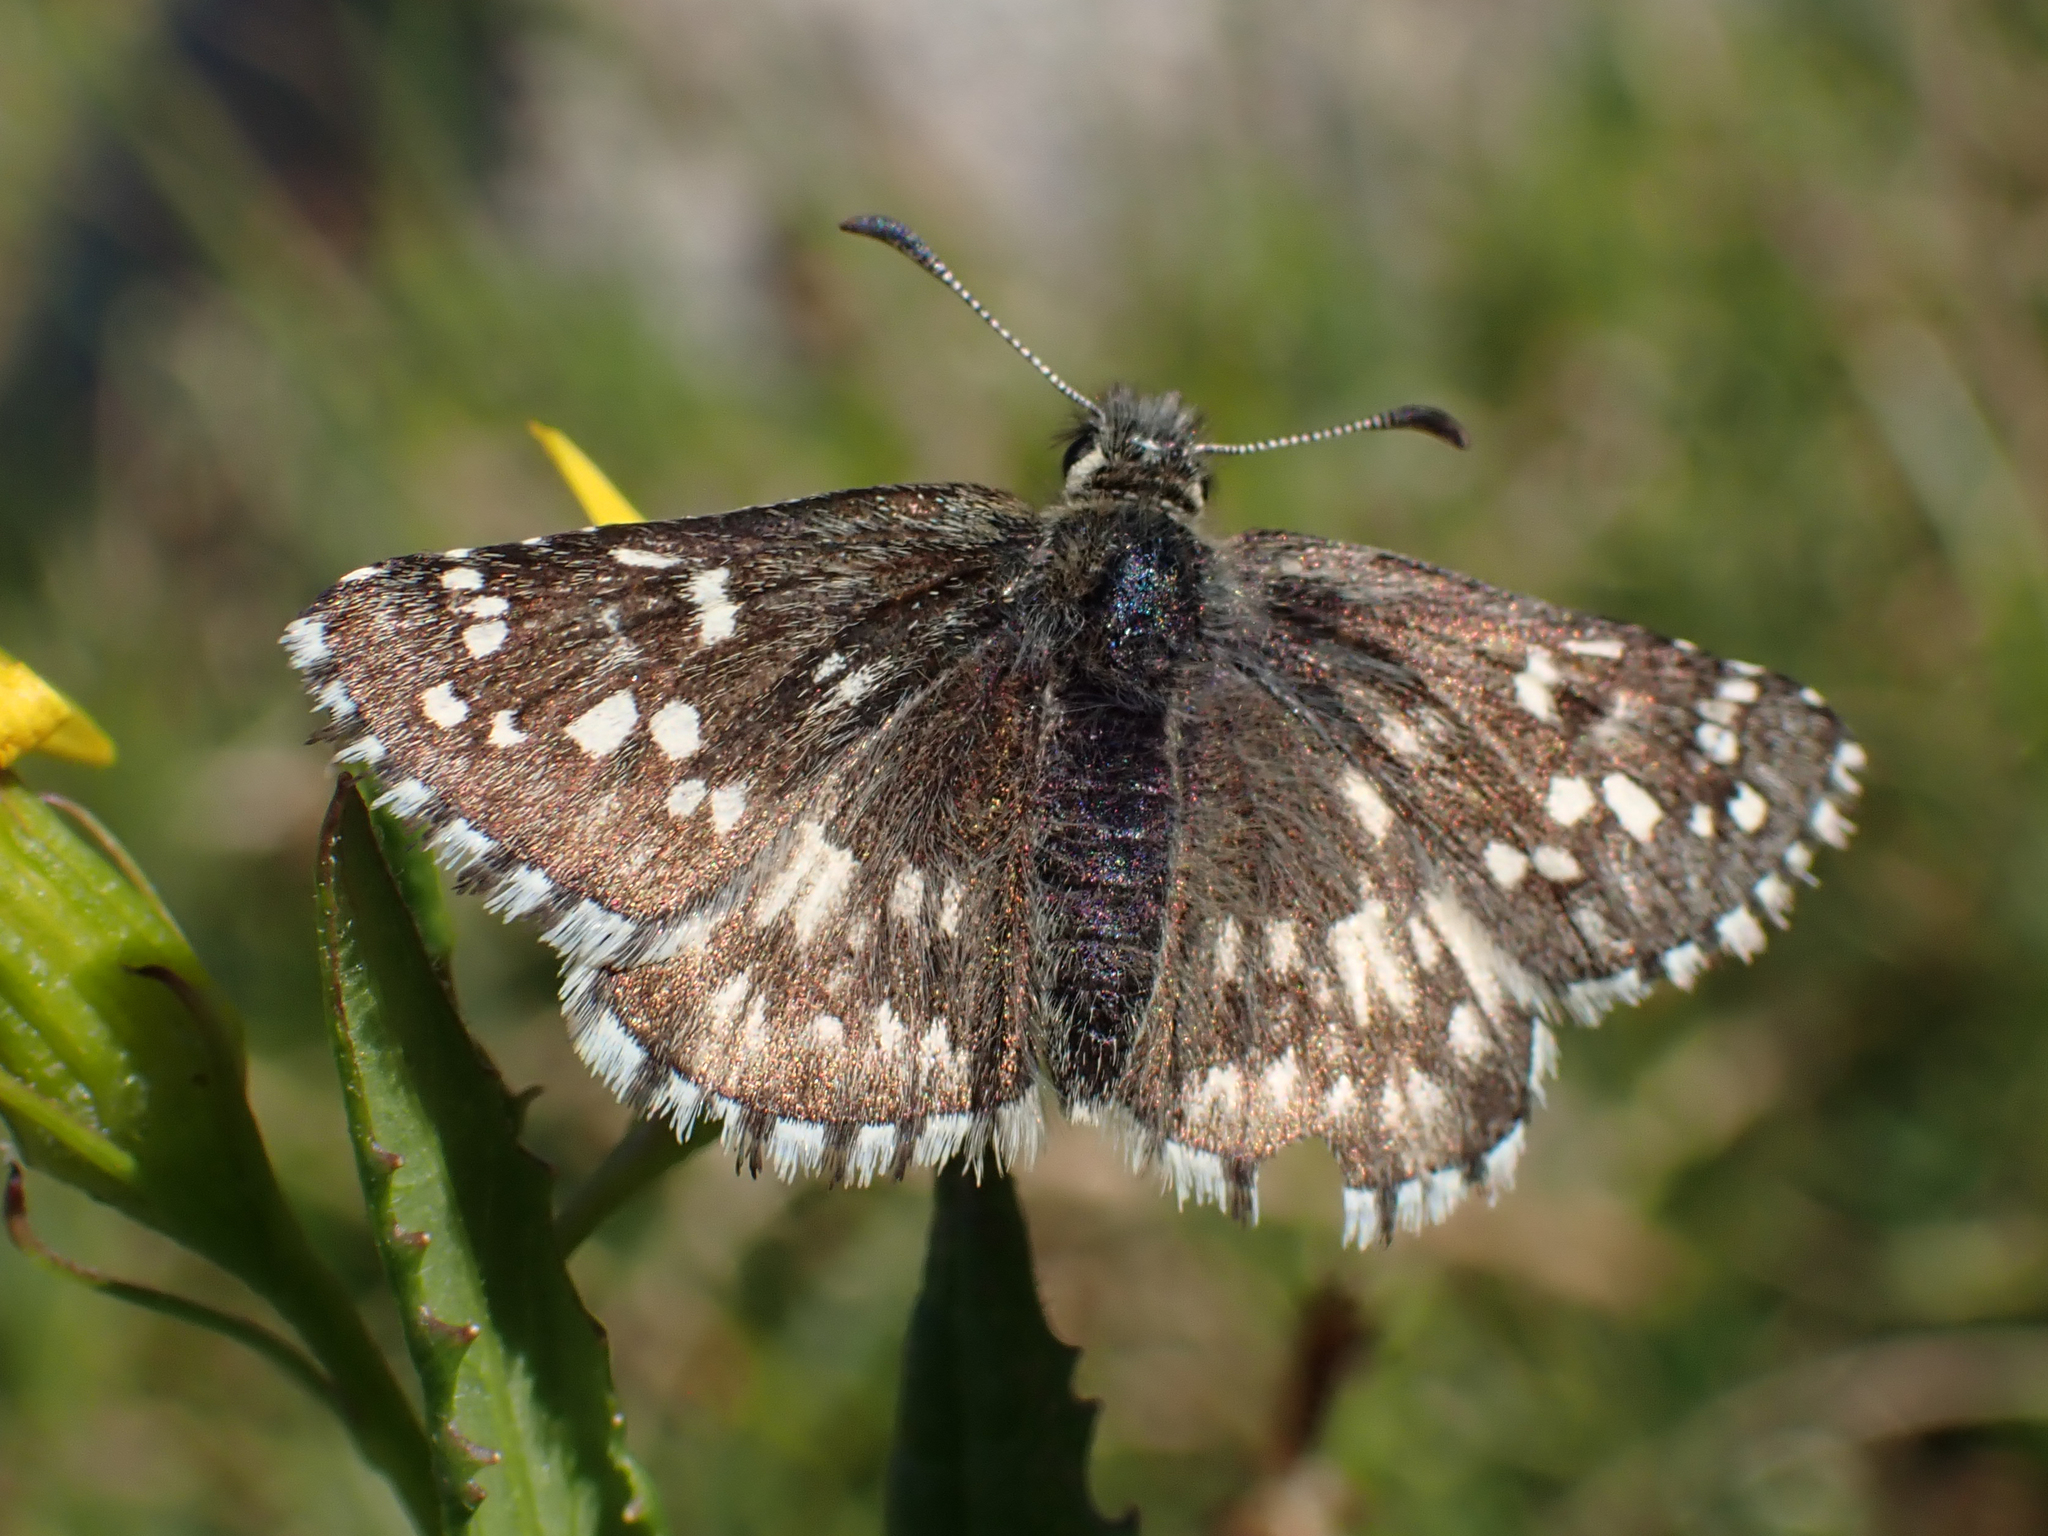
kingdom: Animalia
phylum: Arthropoda
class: Insecta
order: Lepidoptera
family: Hesperiidae
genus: Pyrgus
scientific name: Pyrgus centaureae
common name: Northern grizzled skipper
